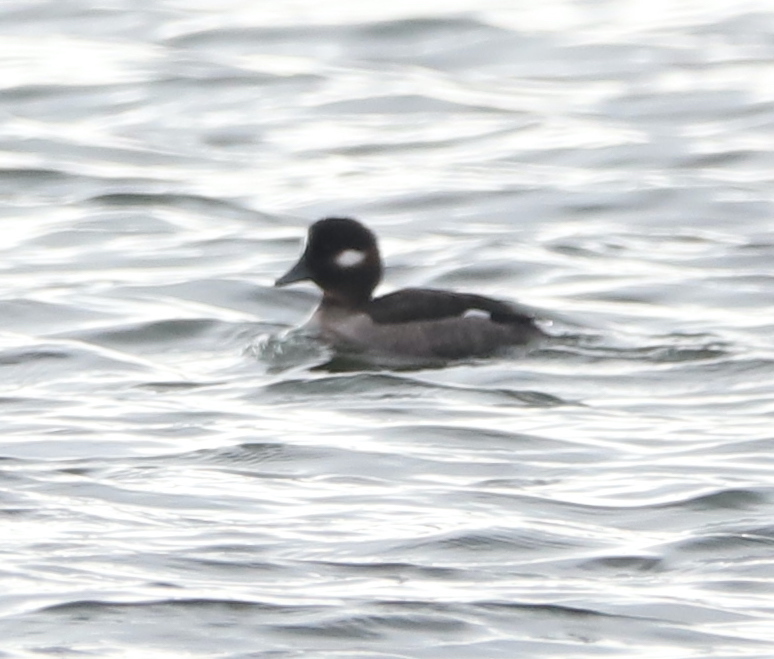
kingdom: Animalia
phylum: Chordata
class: Aves
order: Anseriformes
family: Anatidae
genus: Bucephala
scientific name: Bucephala albeola
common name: Bufflehead
